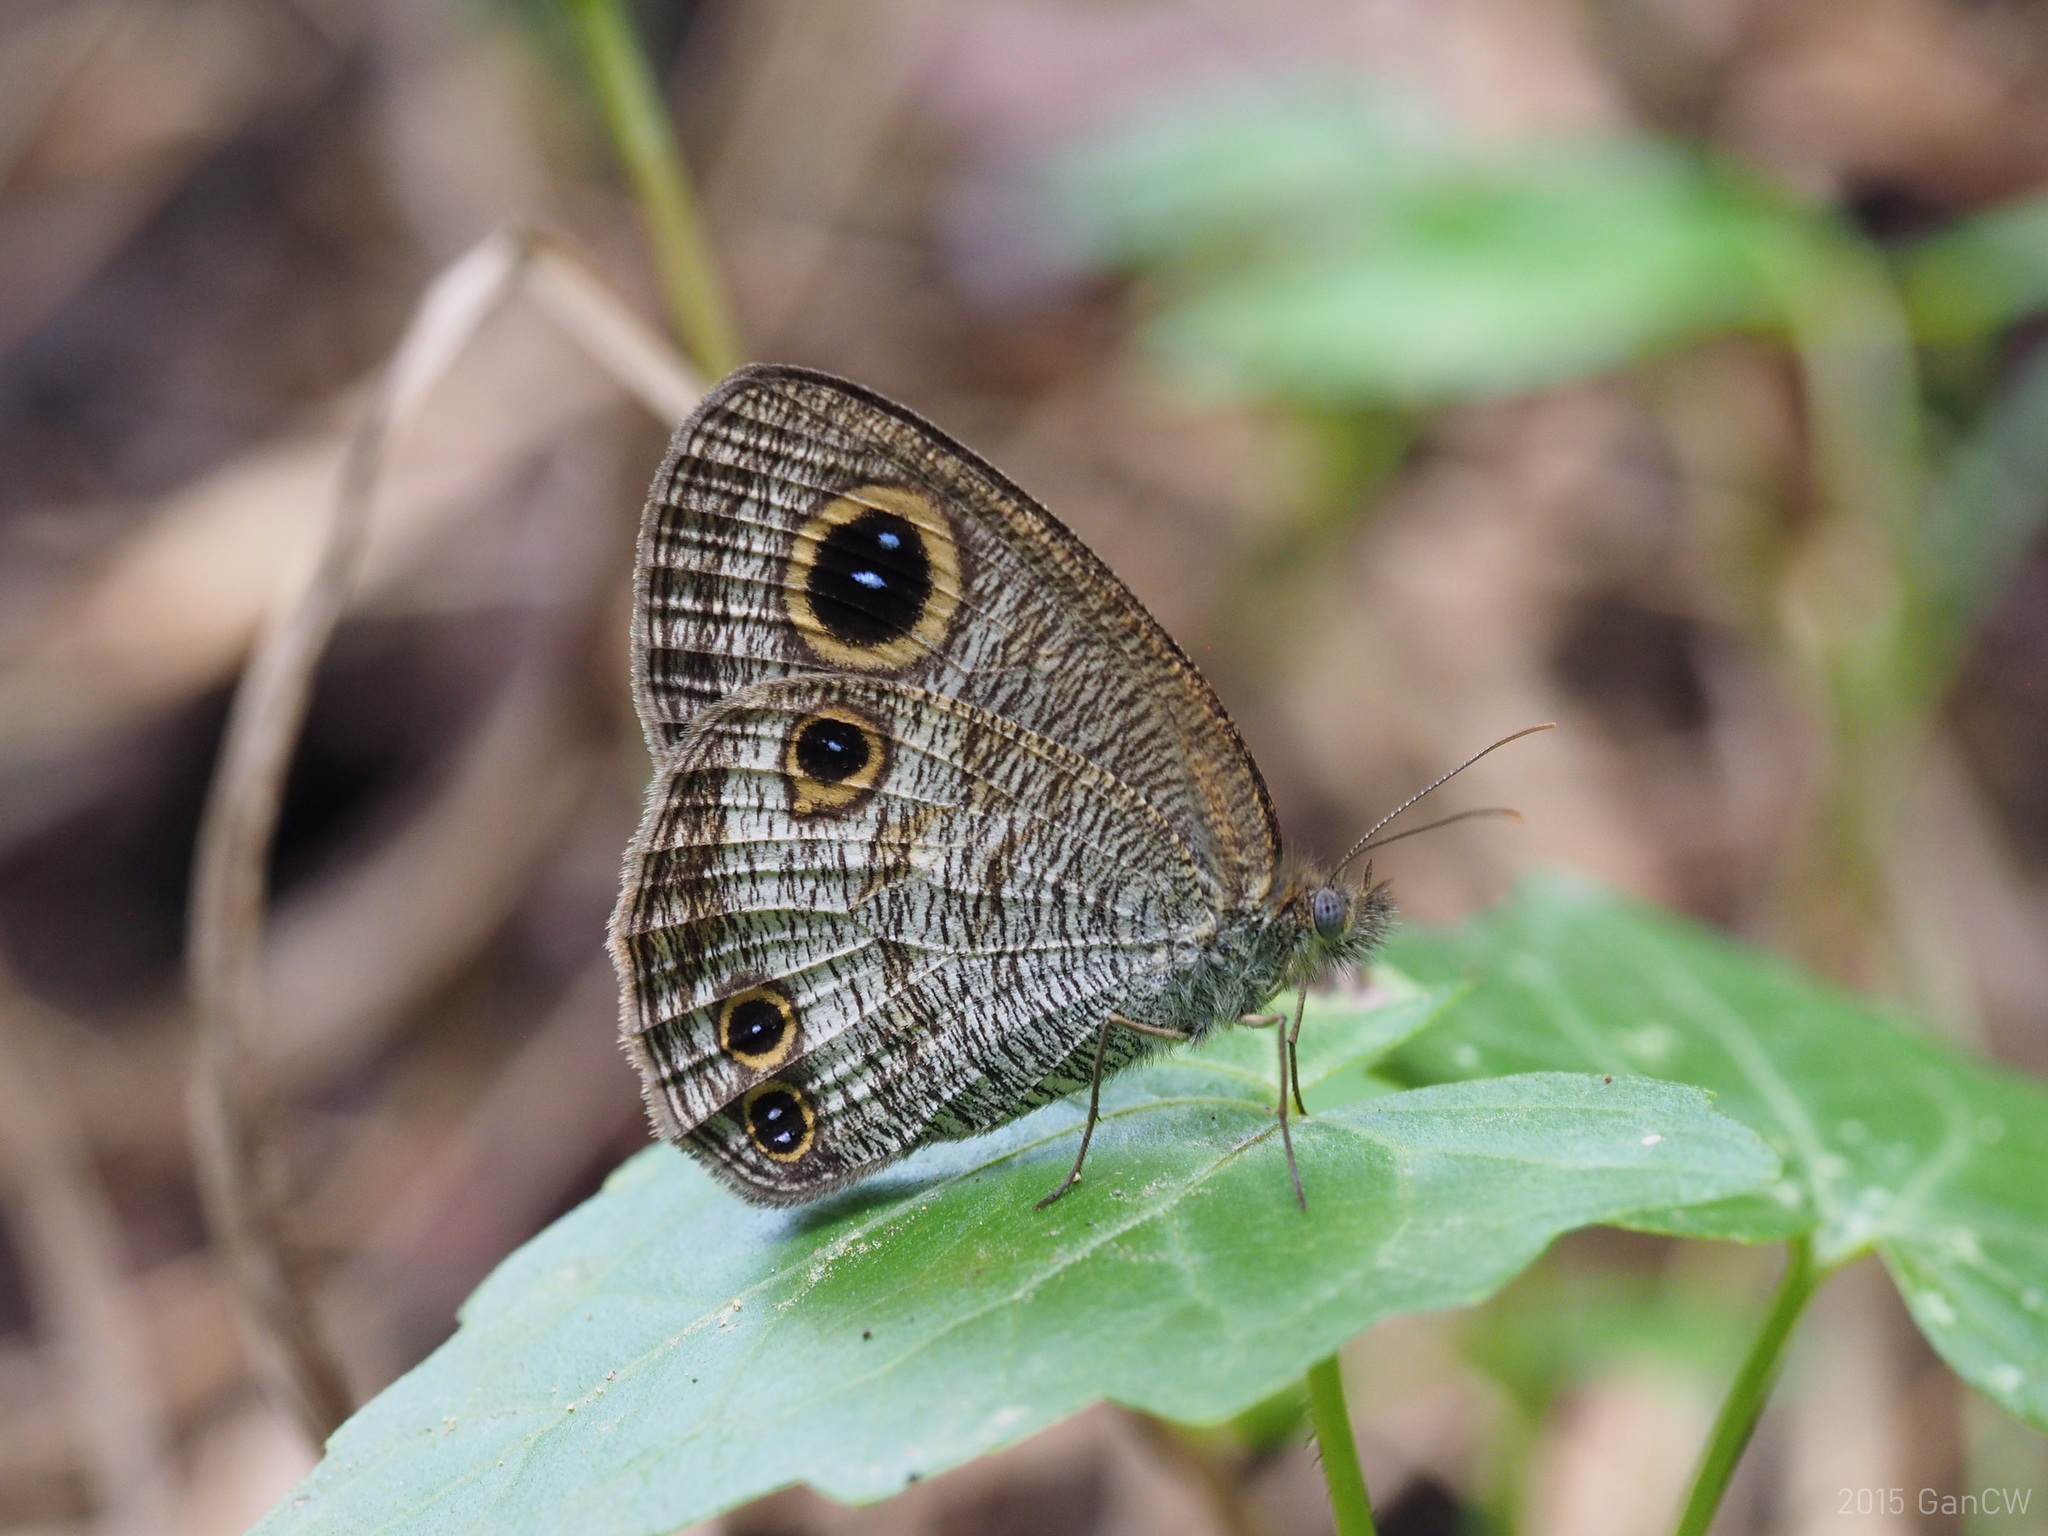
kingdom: Animalia
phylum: Arthropoda
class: Insecta
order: Lepidoptera
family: Nymphalidae
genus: Ypthima
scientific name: Ypthima pandocus
